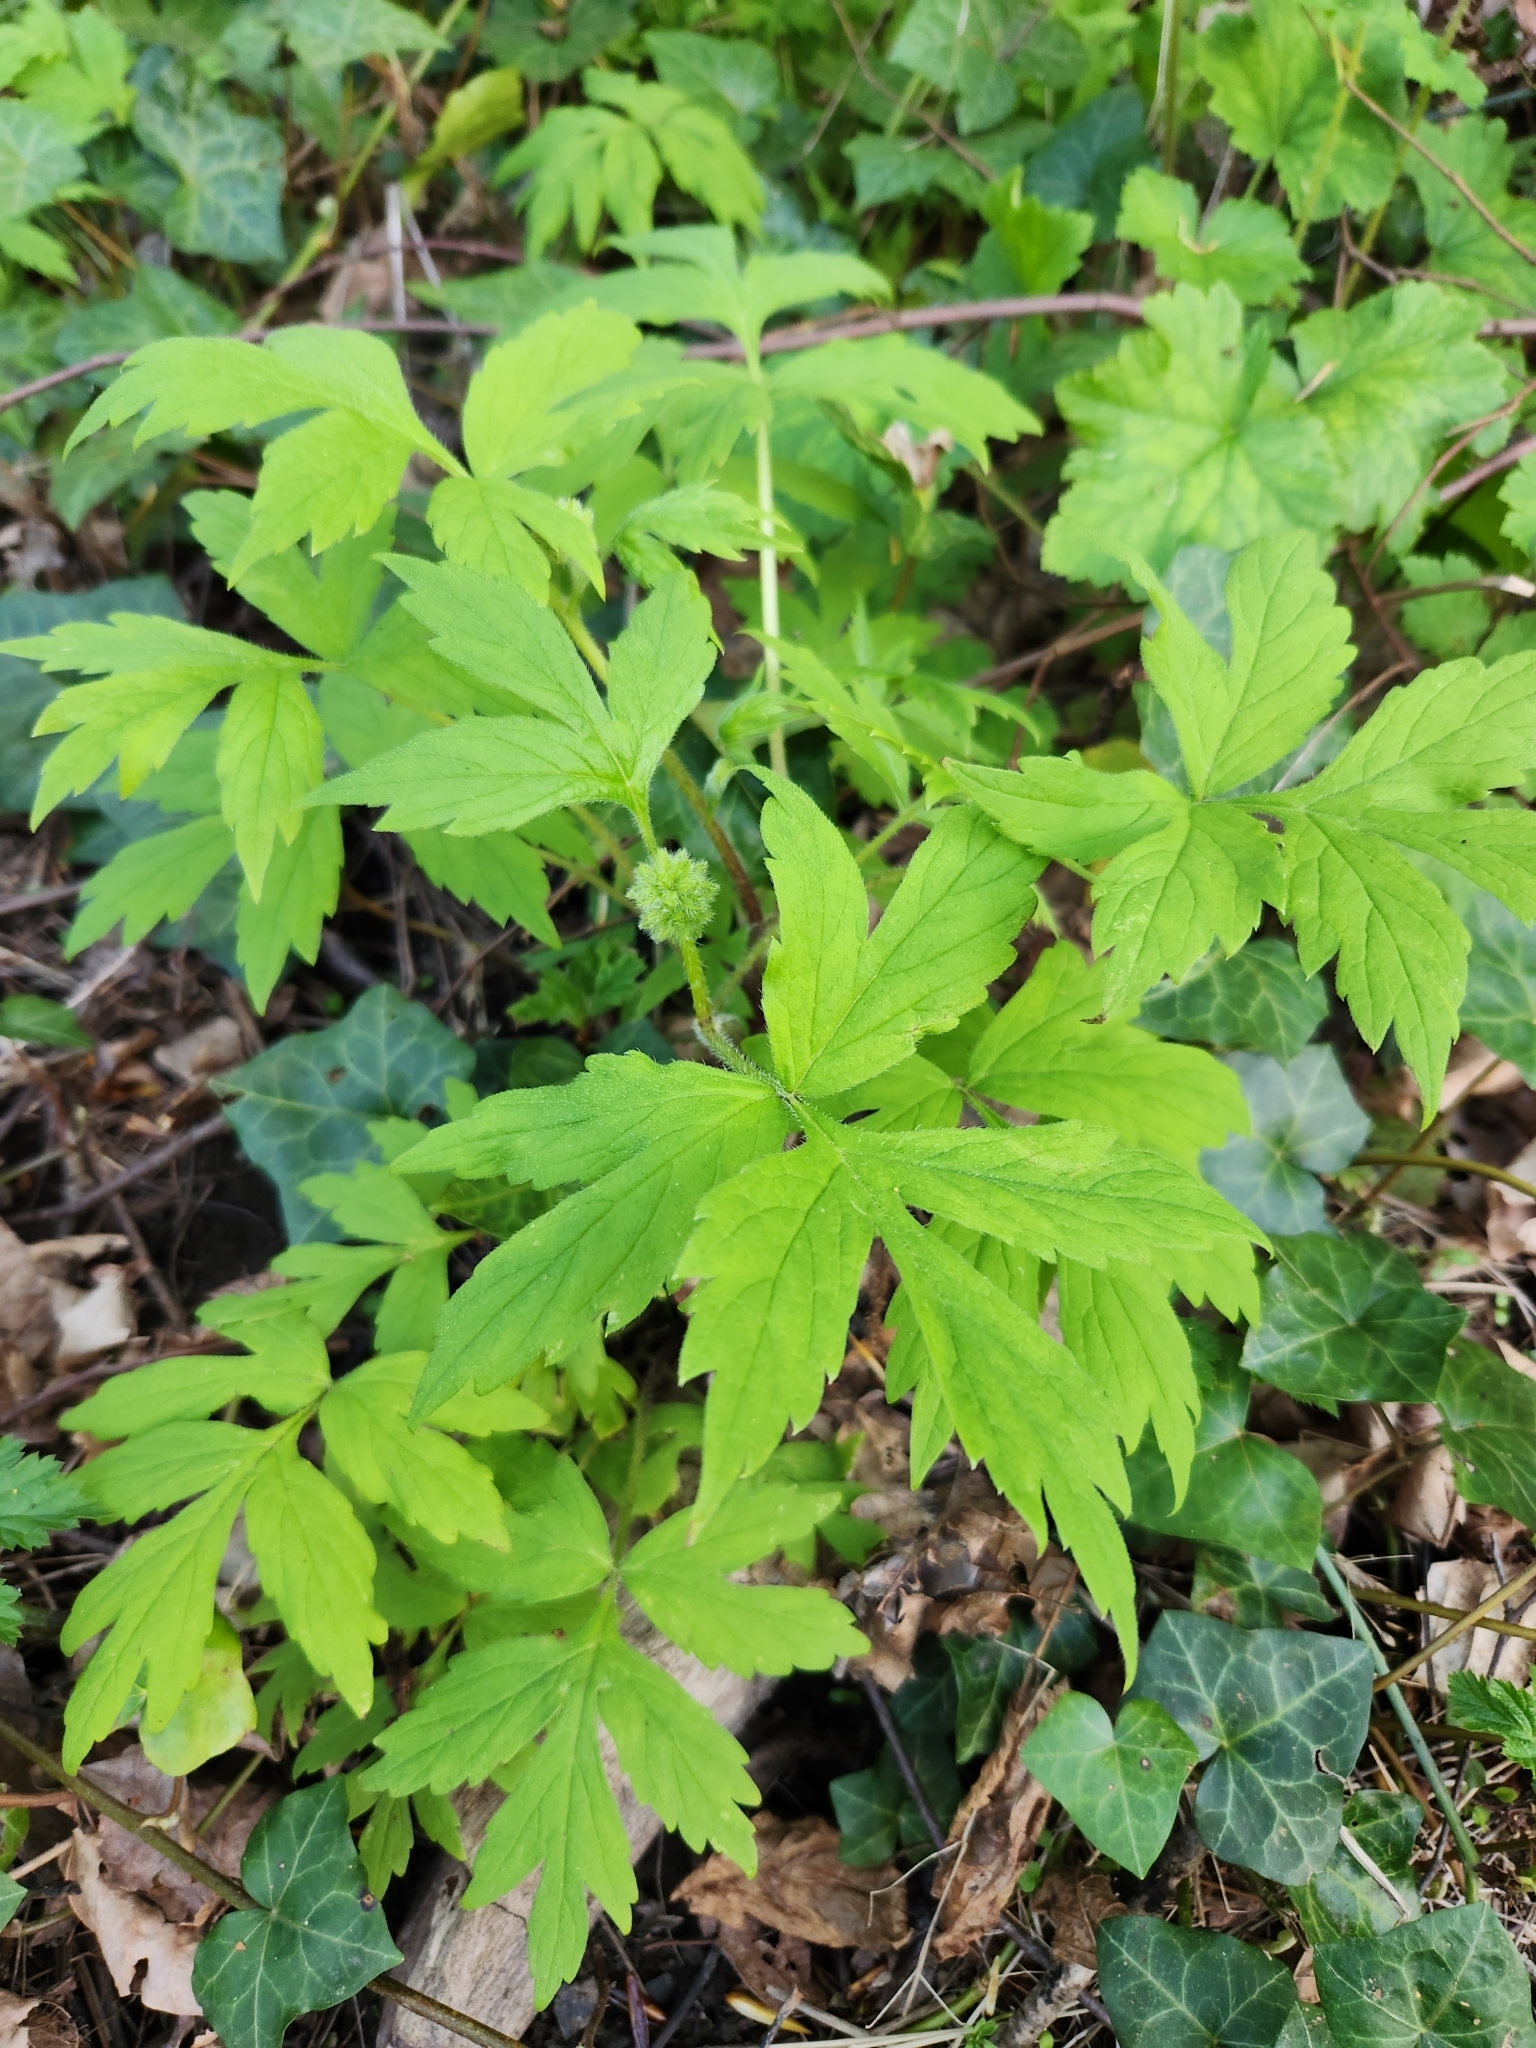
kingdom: Plantae
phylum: Tracheophyta
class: Magnoliopsida
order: Boraginales
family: Hydrophyllaceae
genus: Hydrophyllum
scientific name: Hydrophyllum tenuipes
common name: Pacific waterleaf
